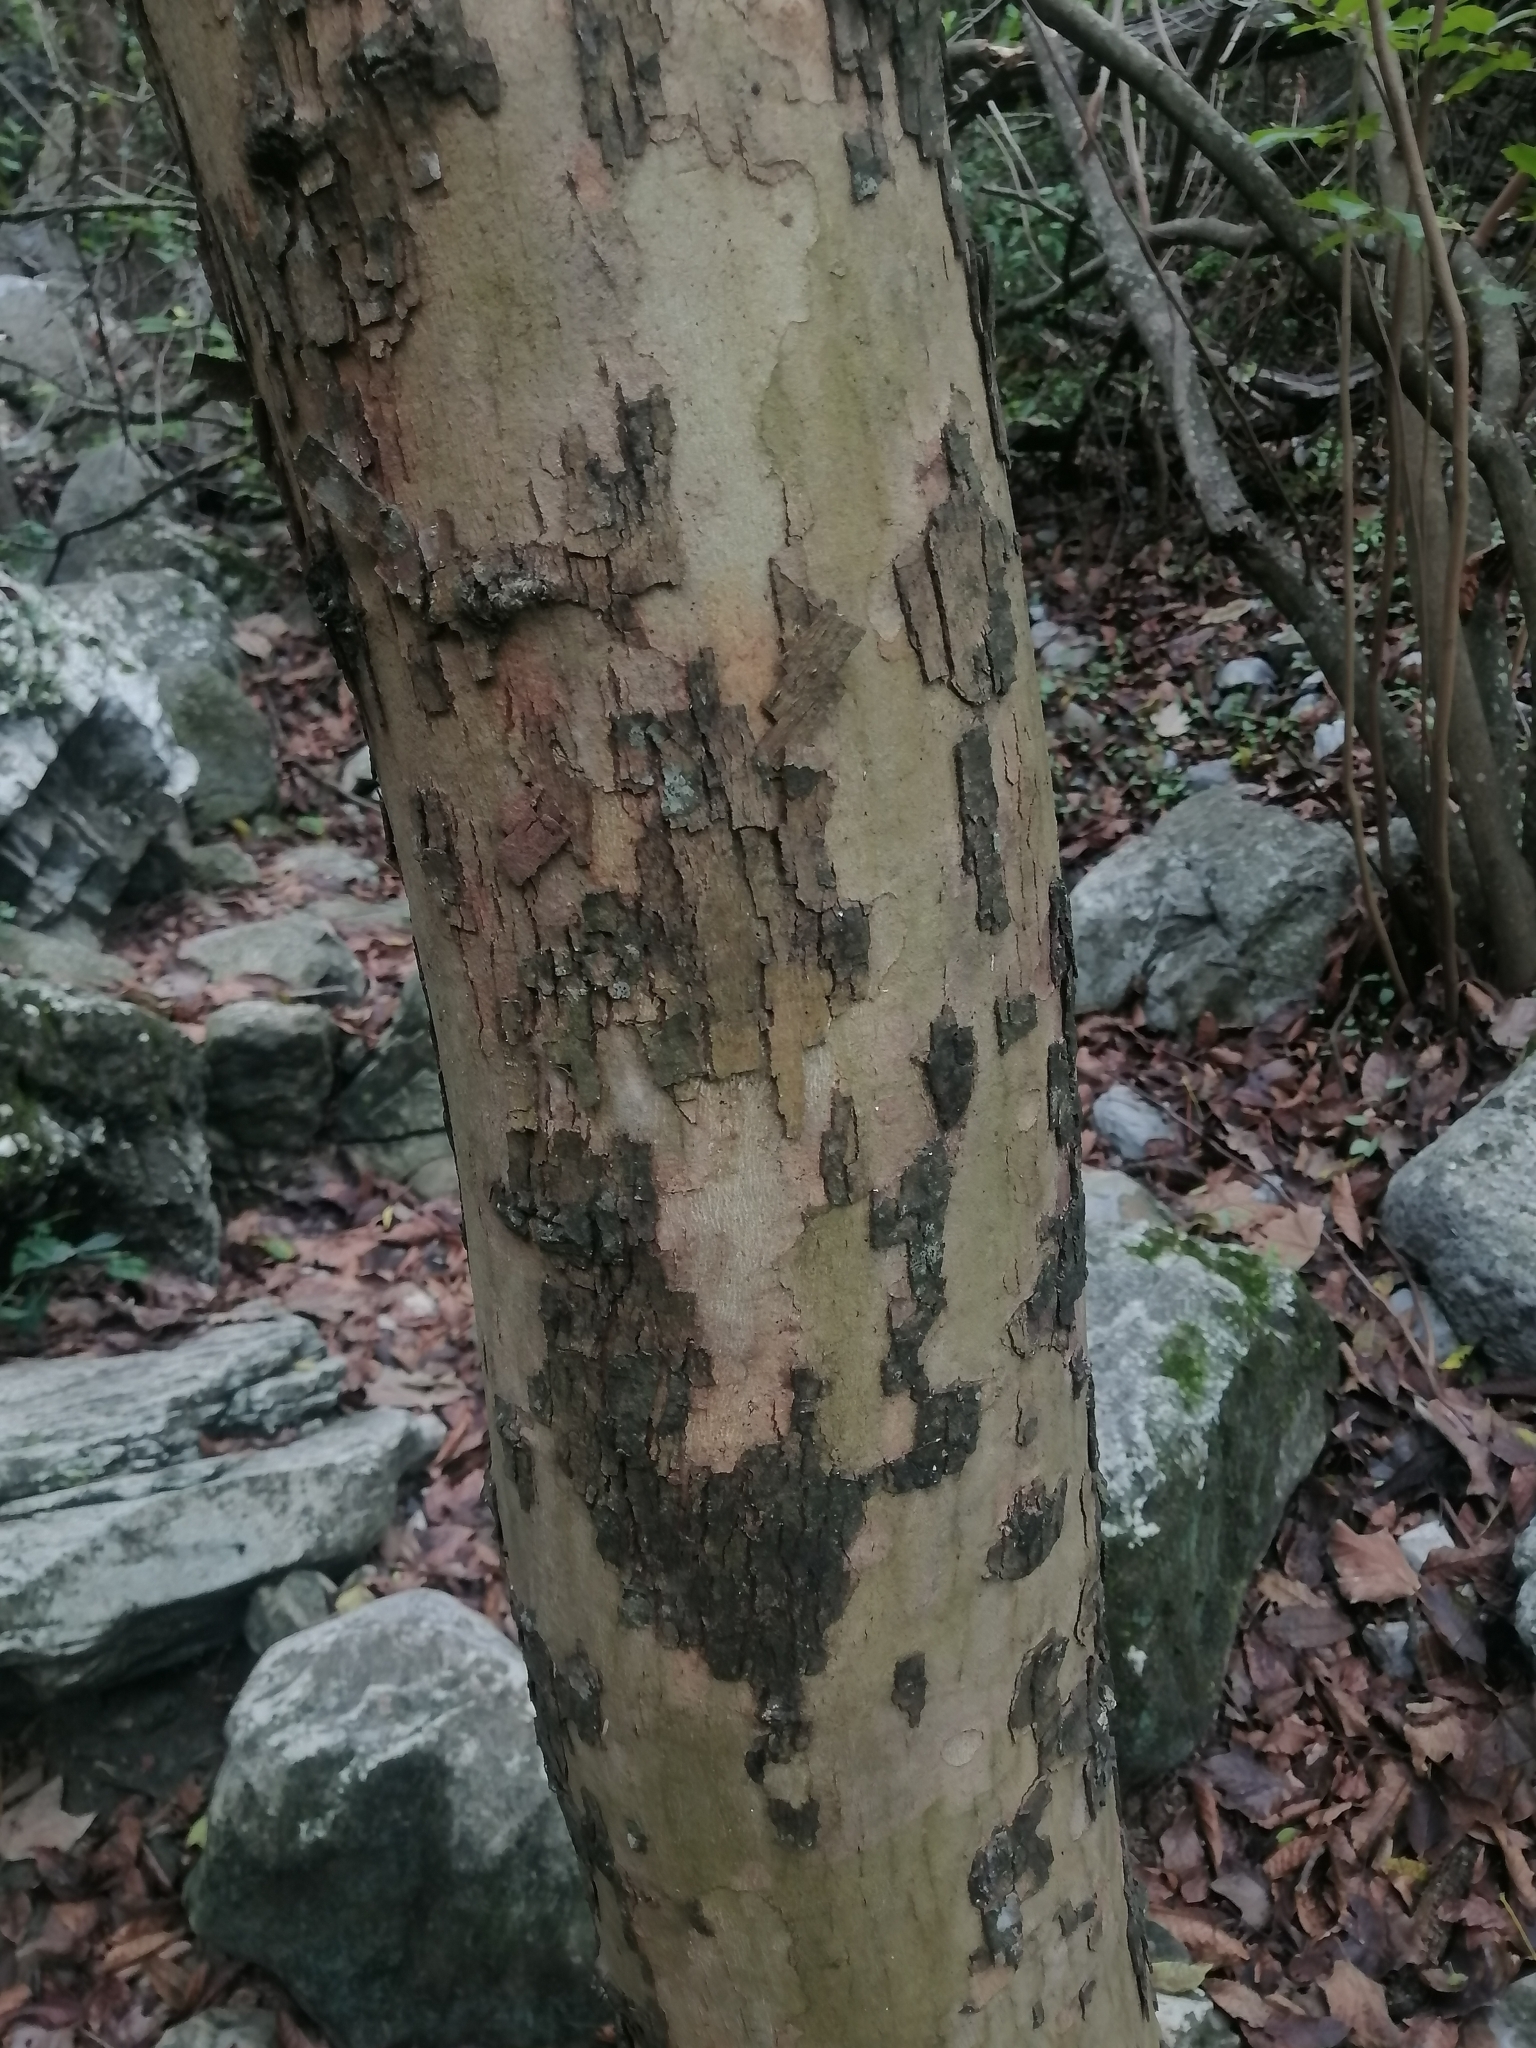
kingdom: Plantae
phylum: Tracheophyta
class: Magnoliopsida
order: Proteales
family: Platanaceae
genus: Platanus
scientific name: Platanus rzedowskii
